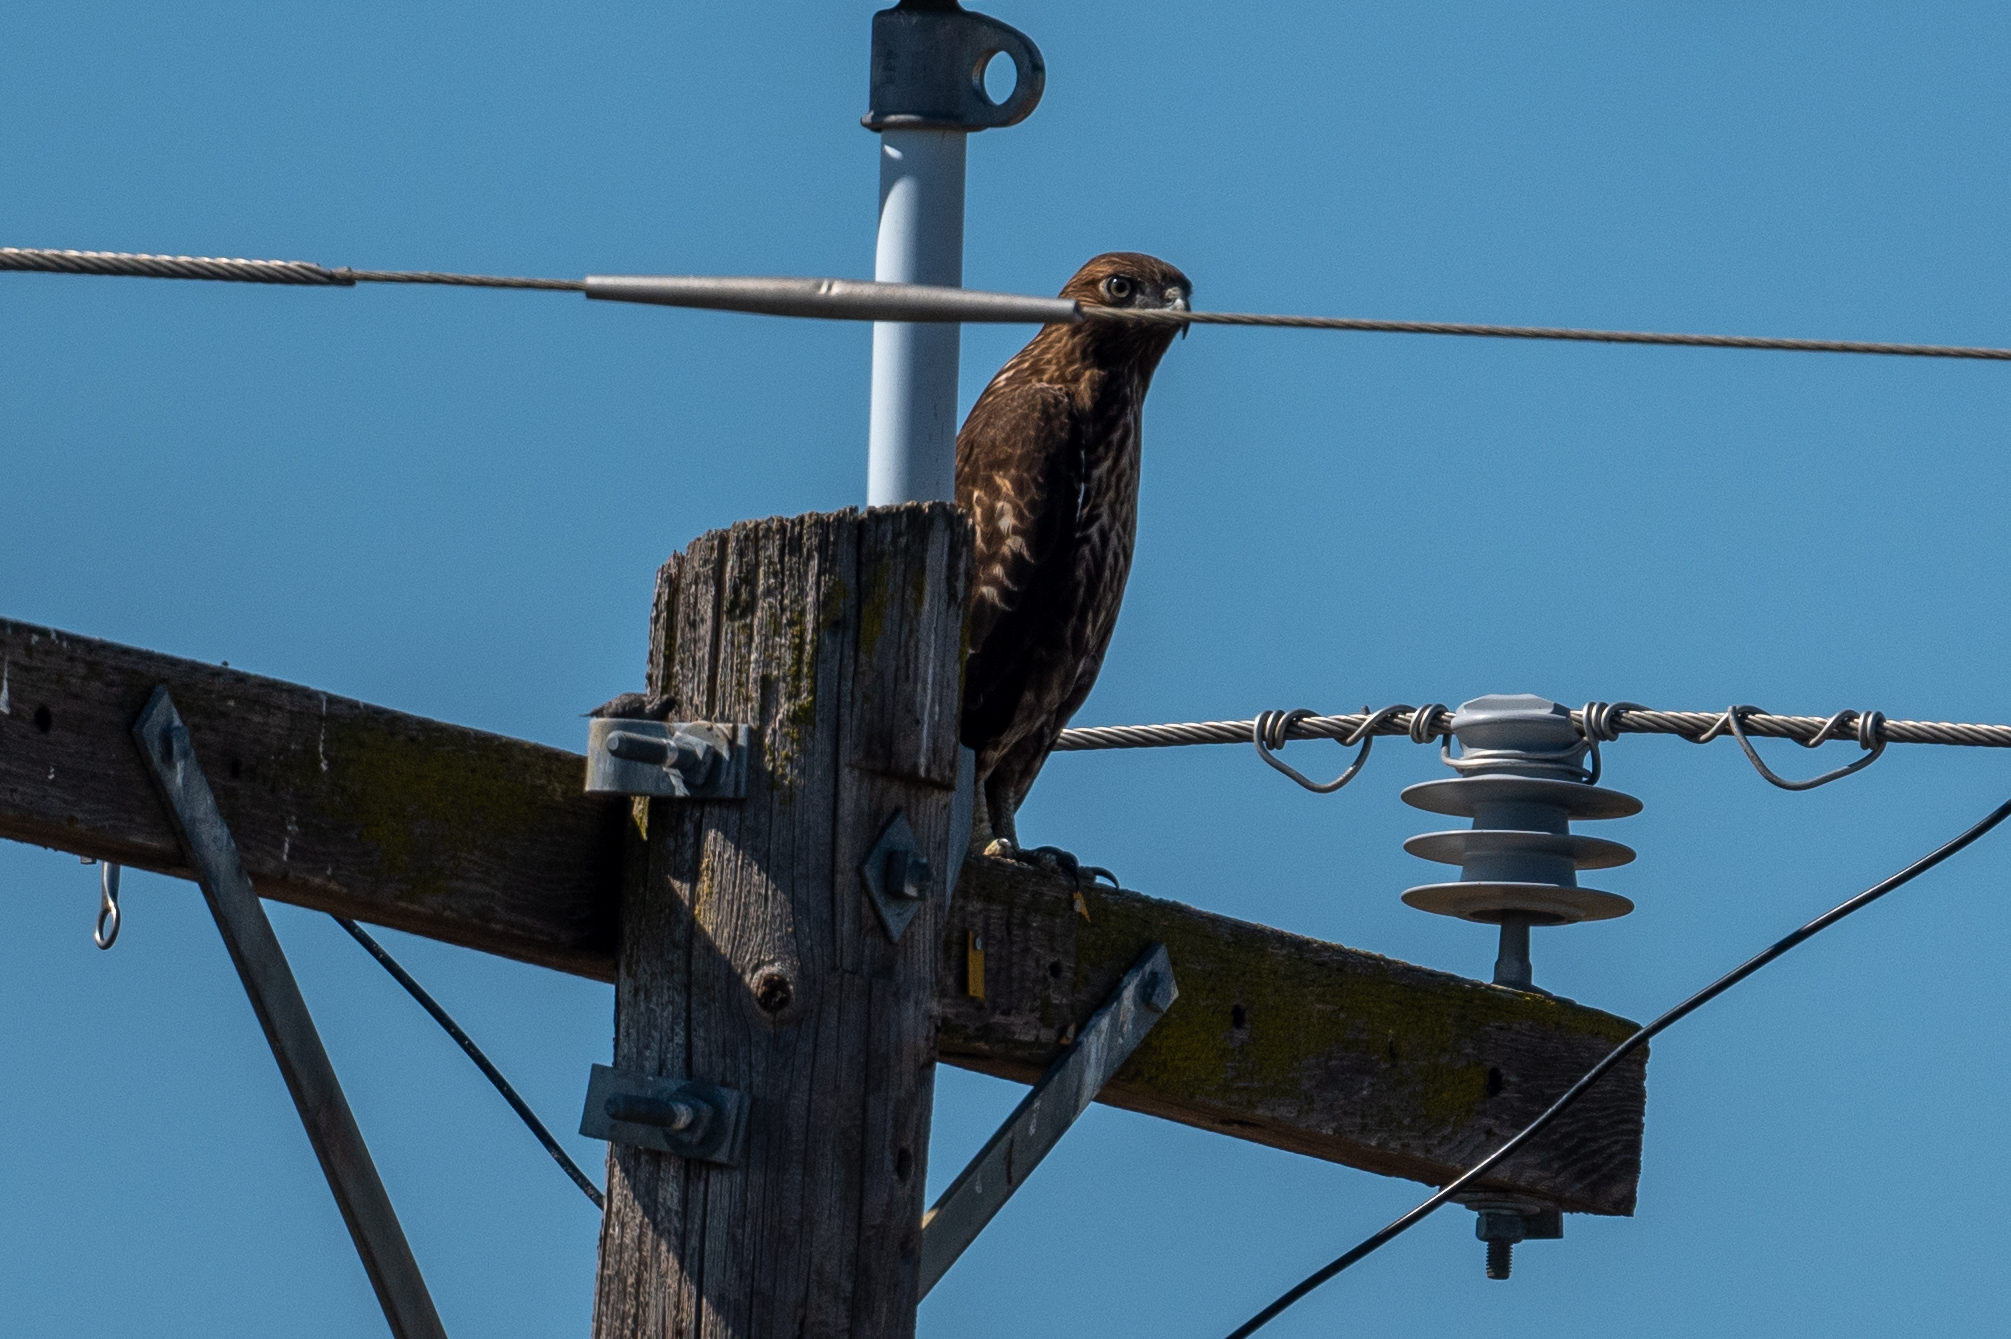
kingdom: Animalia
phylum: Chordata
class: Aves
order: Accipitriformes
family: Accipitridae
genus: Buteo
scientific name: Buteo jamaicensis
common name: Red-tailed hawk
